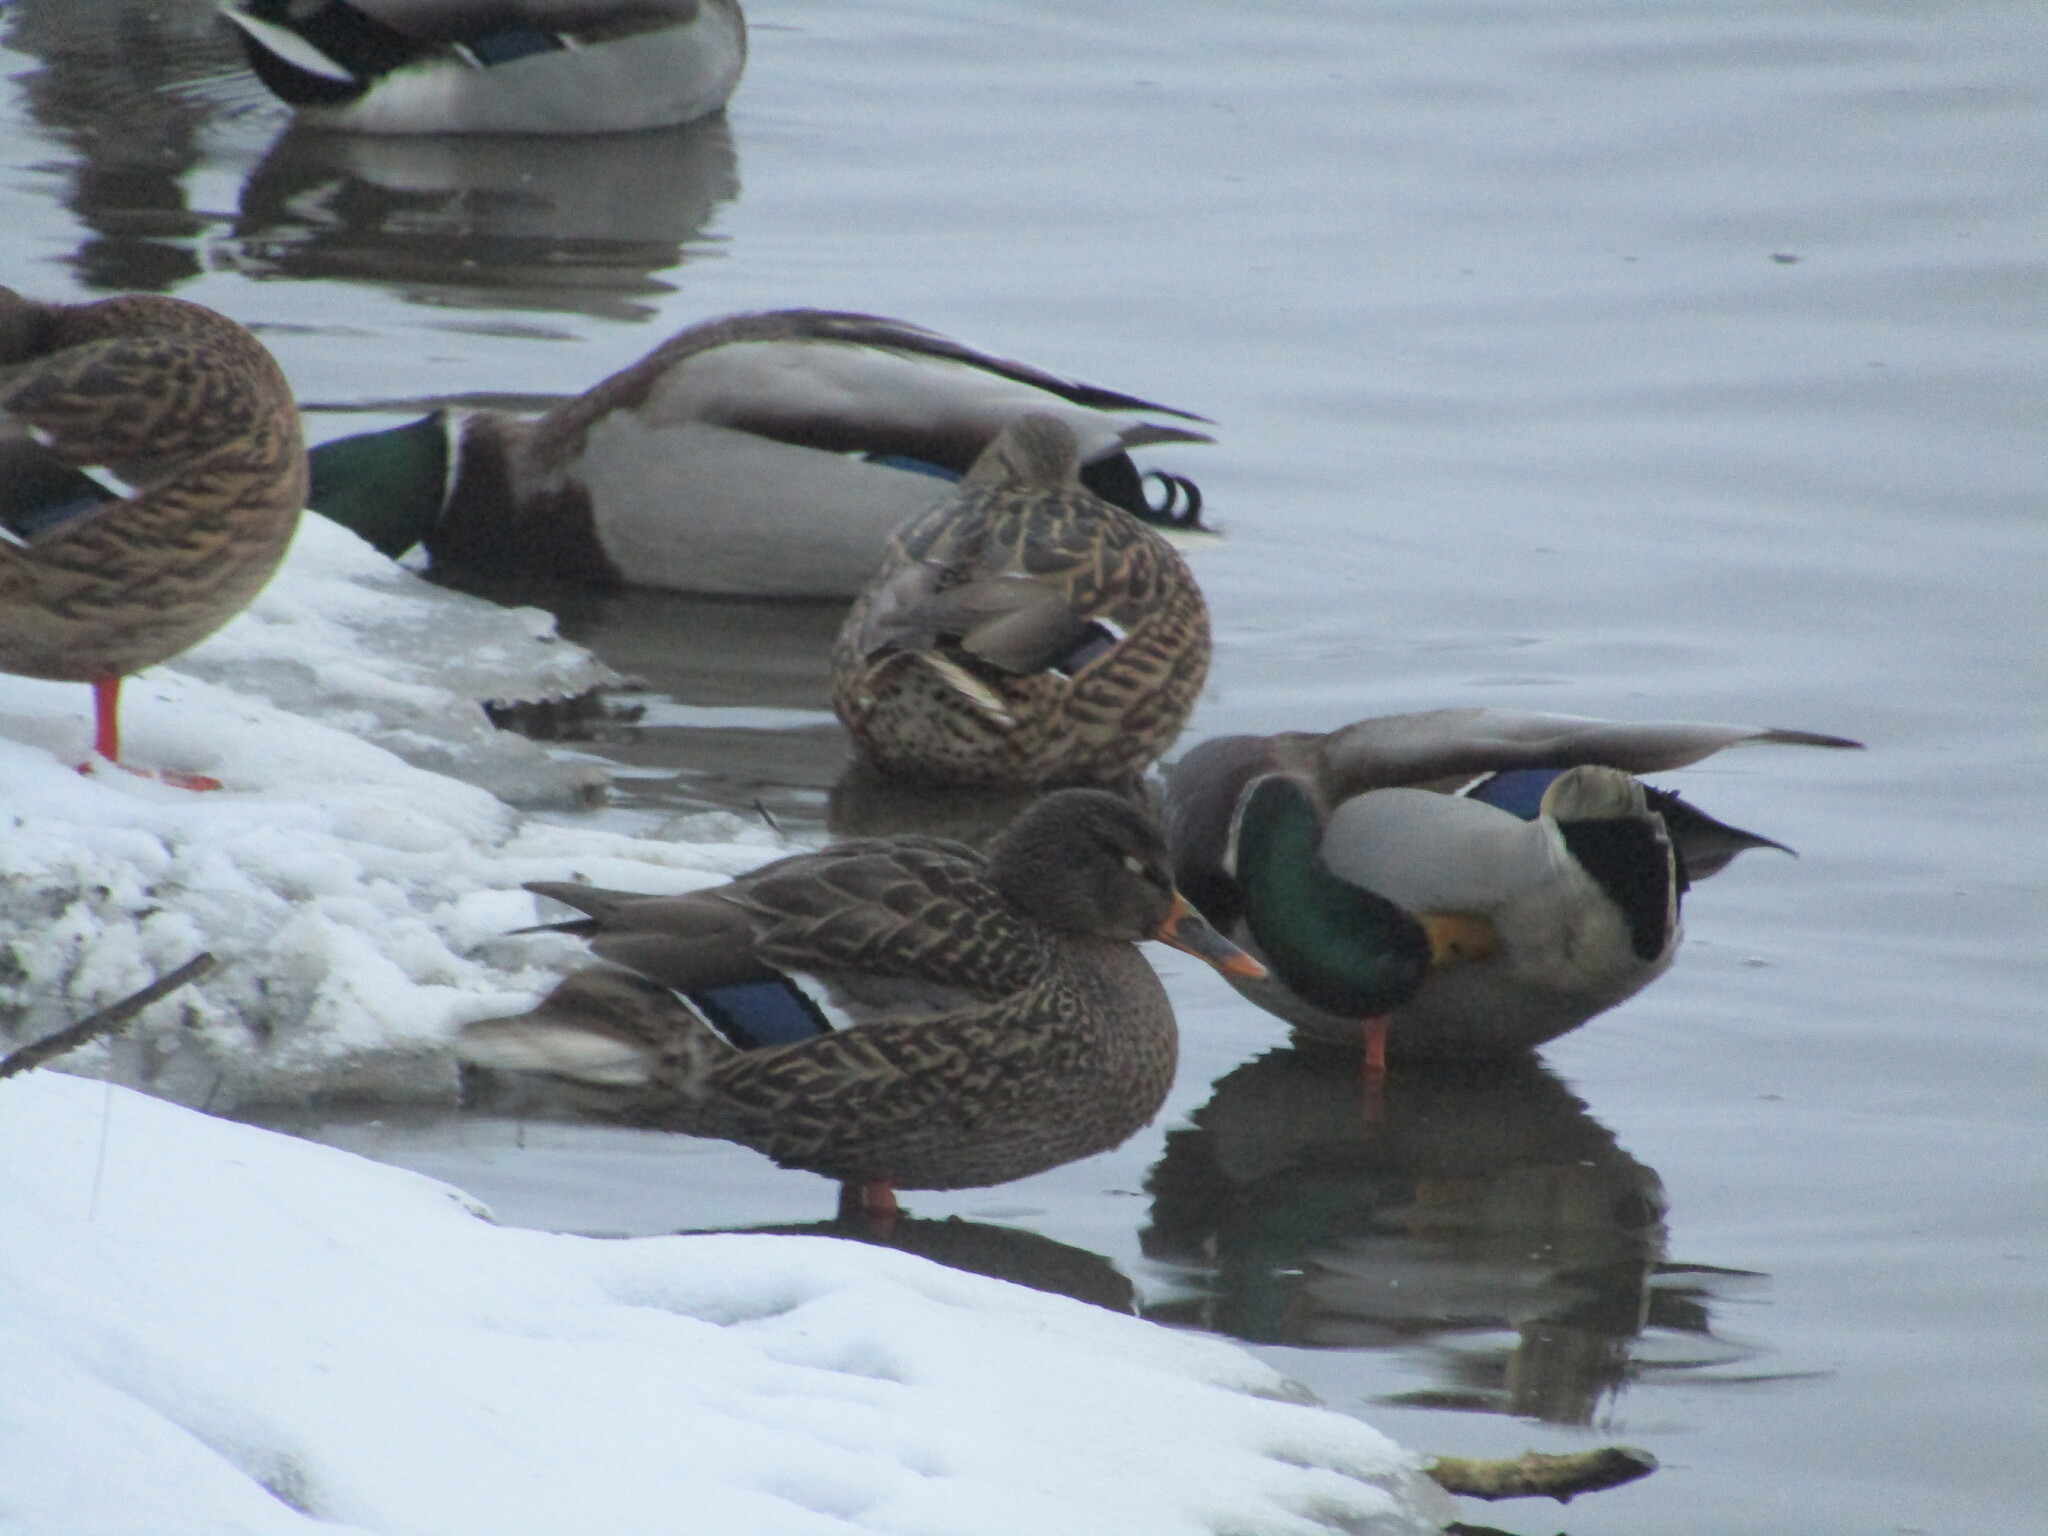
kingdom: Animalia
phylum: Chordata
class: Aves
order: Anseriformes
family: Anatidae
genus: Anas
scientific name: Anas platyrhynchos
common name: Mallard
